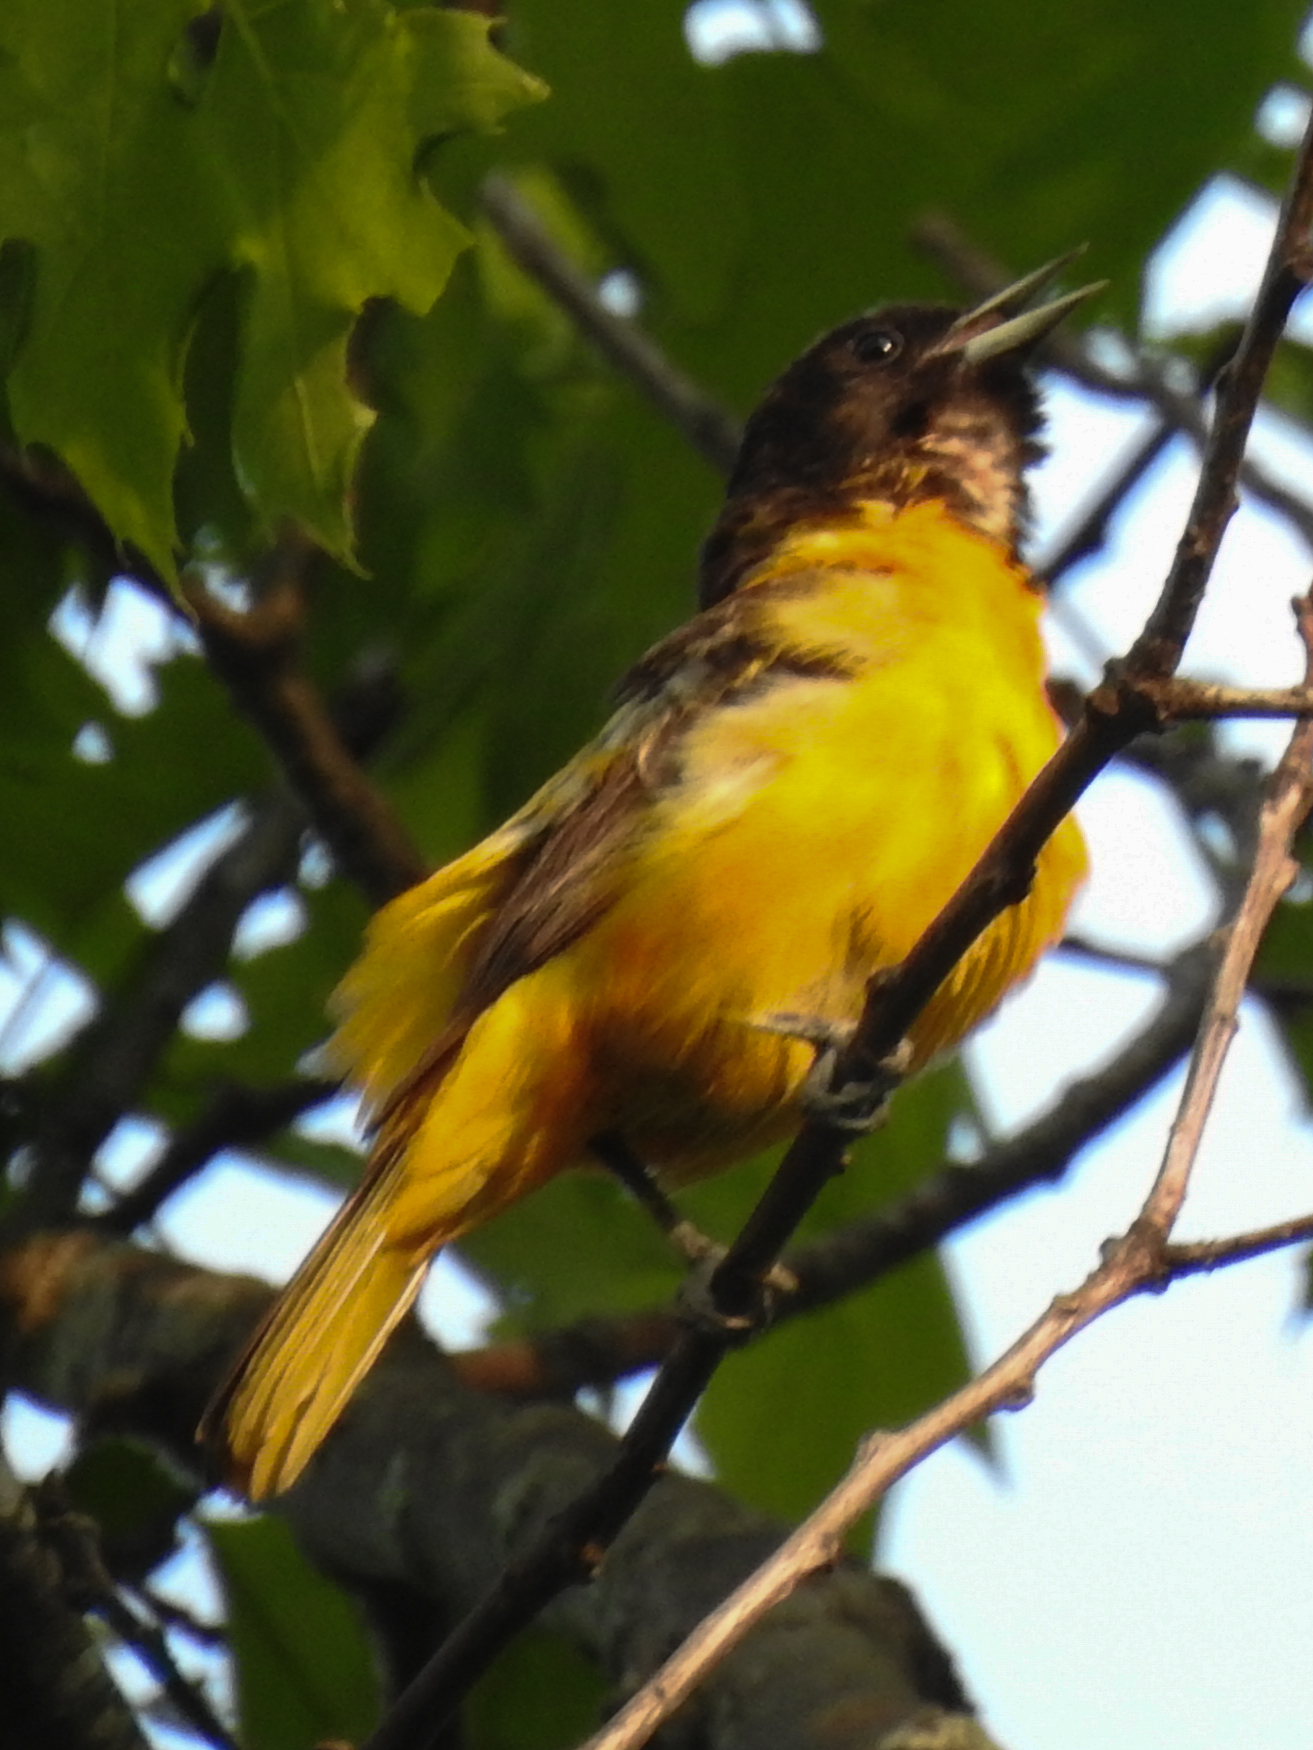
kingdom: Animalia
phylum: Chordata
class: Aves
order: Passeriformes
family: Icteridae
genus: Icterus
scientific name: Icterus galbula
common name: Baltimore oriole
